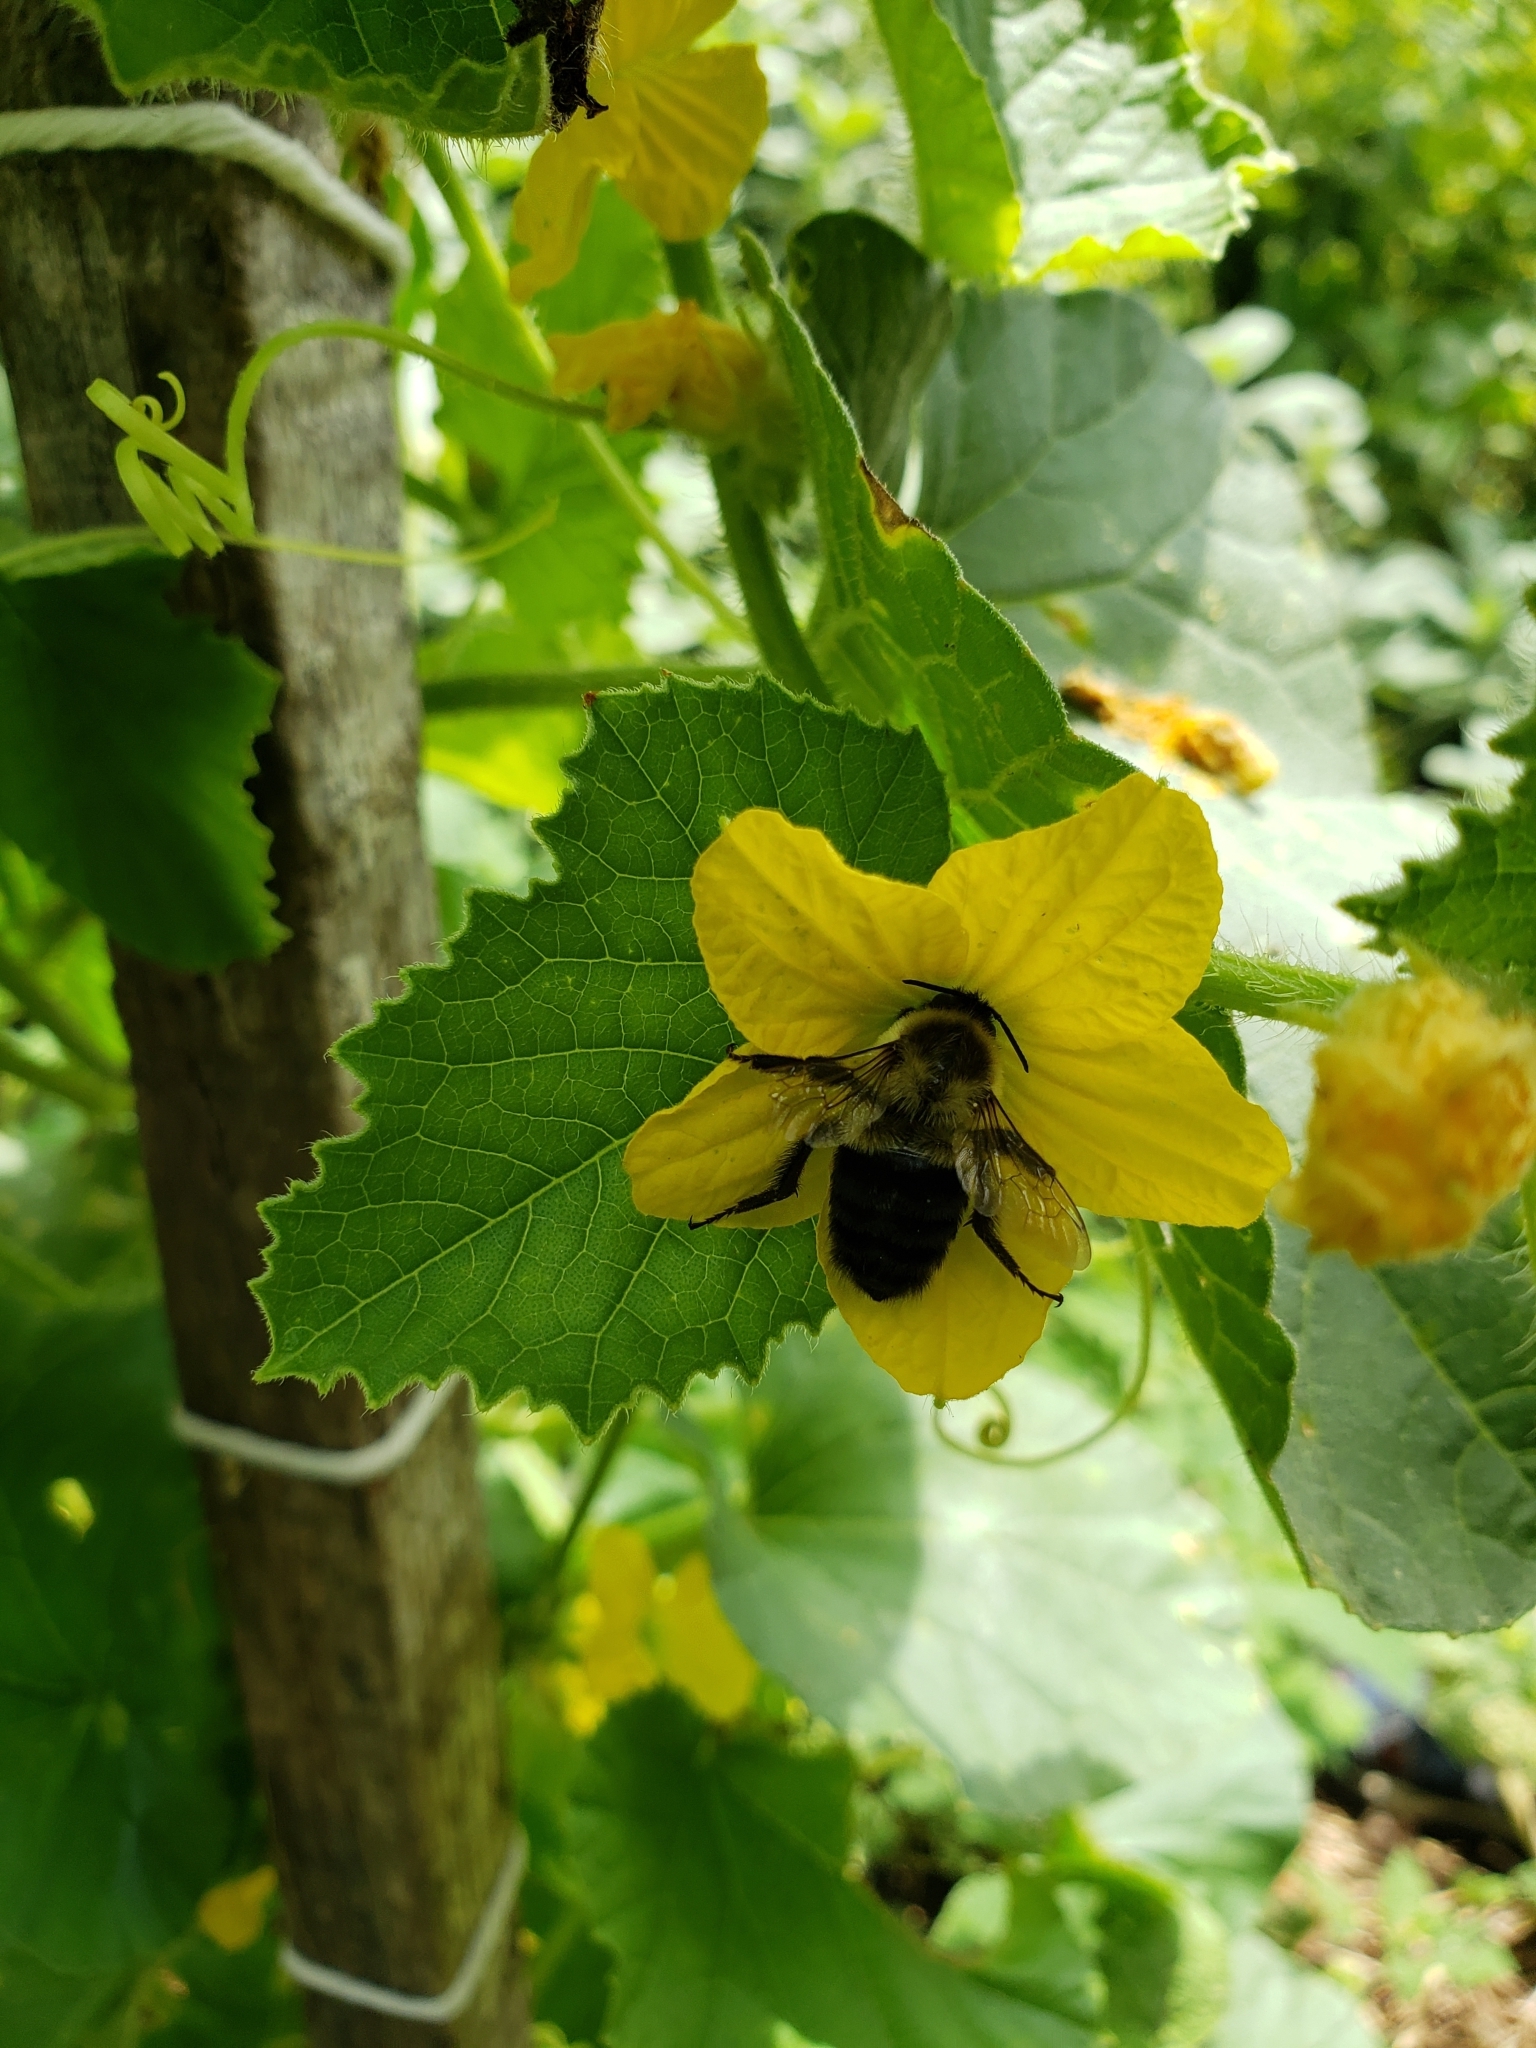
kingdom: Animalia
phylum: Arthropoda
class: Insecta
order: Hymenoptera
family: Apidae
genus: Bombus
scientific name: Bombus impatiens
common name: Common eastern bumble bee
